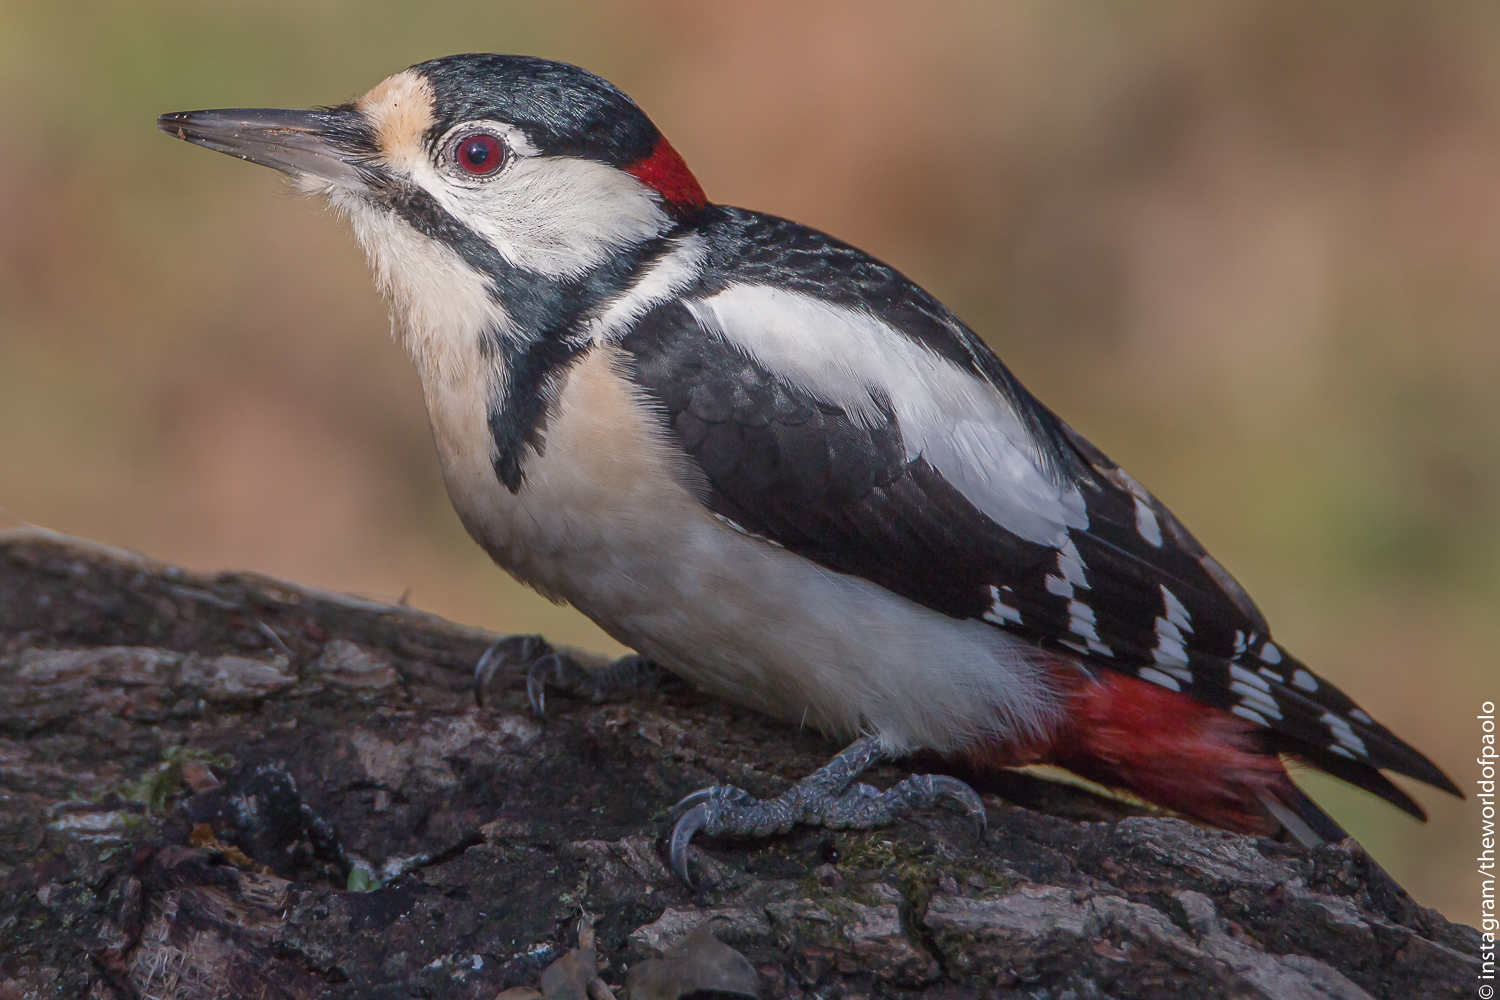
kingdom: Animalia
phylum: Chordata
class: Aves
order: Piciformes
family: Picidae
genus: Dendrocopos
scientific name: Dendrocopos major
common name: Great spotted woodpecker
